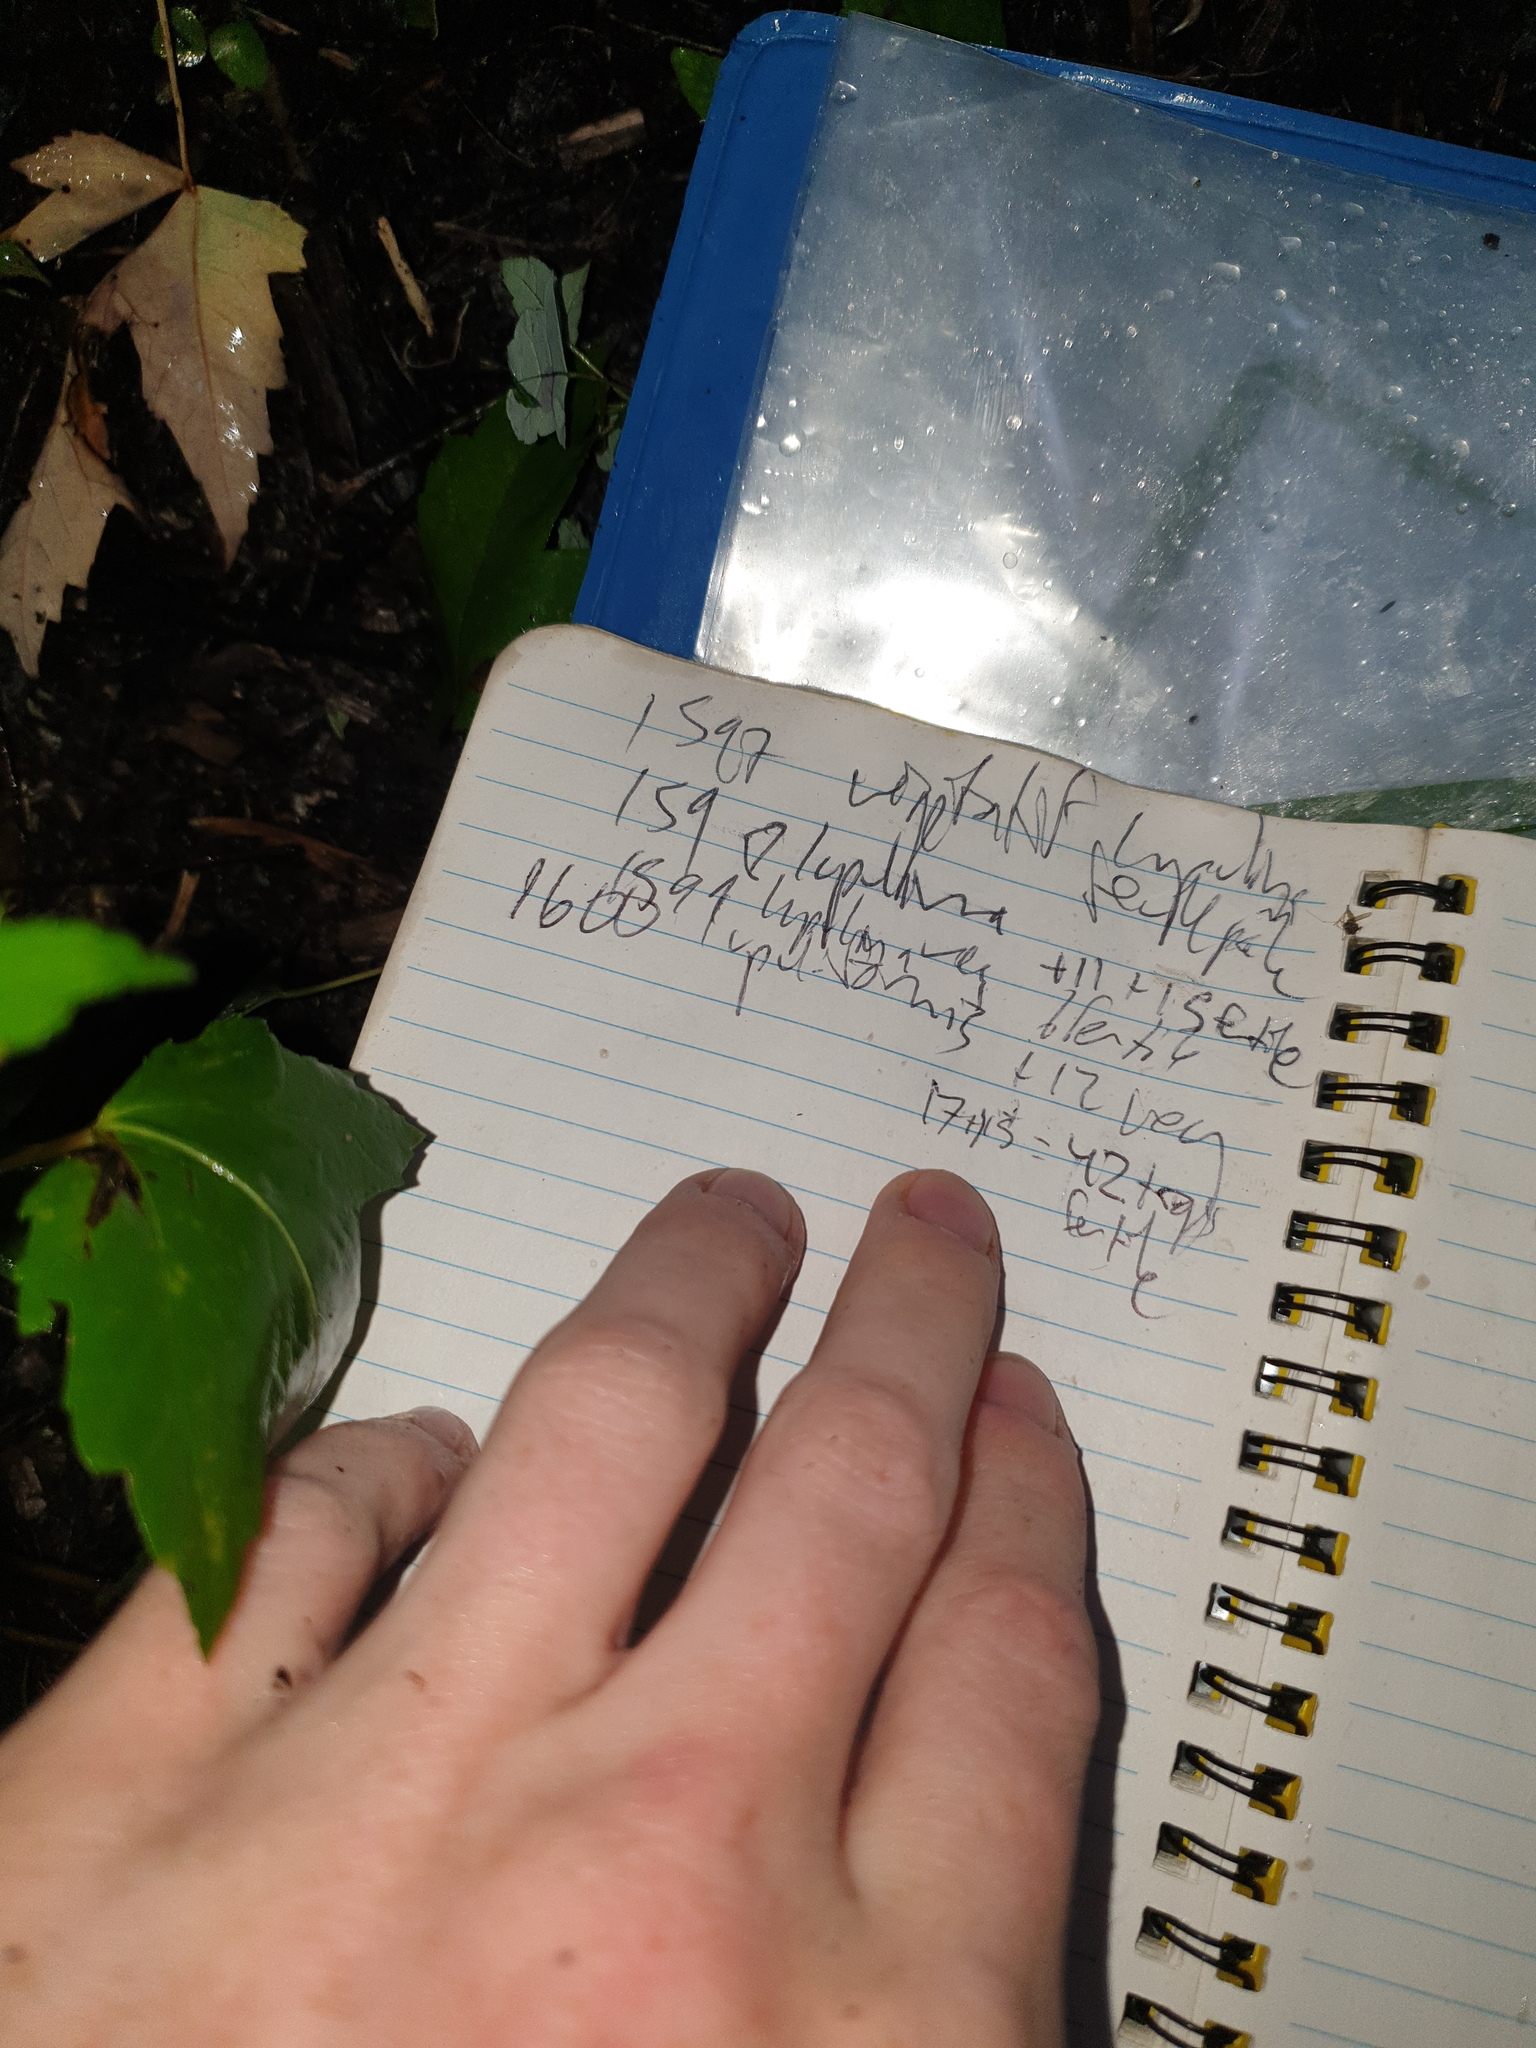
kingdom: Plantae
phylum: Tracheophyta
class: Liliopsida
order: Poales
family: Cyperaceae
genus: Carex
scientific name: Carex lupuliformis
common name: False hop sedge
